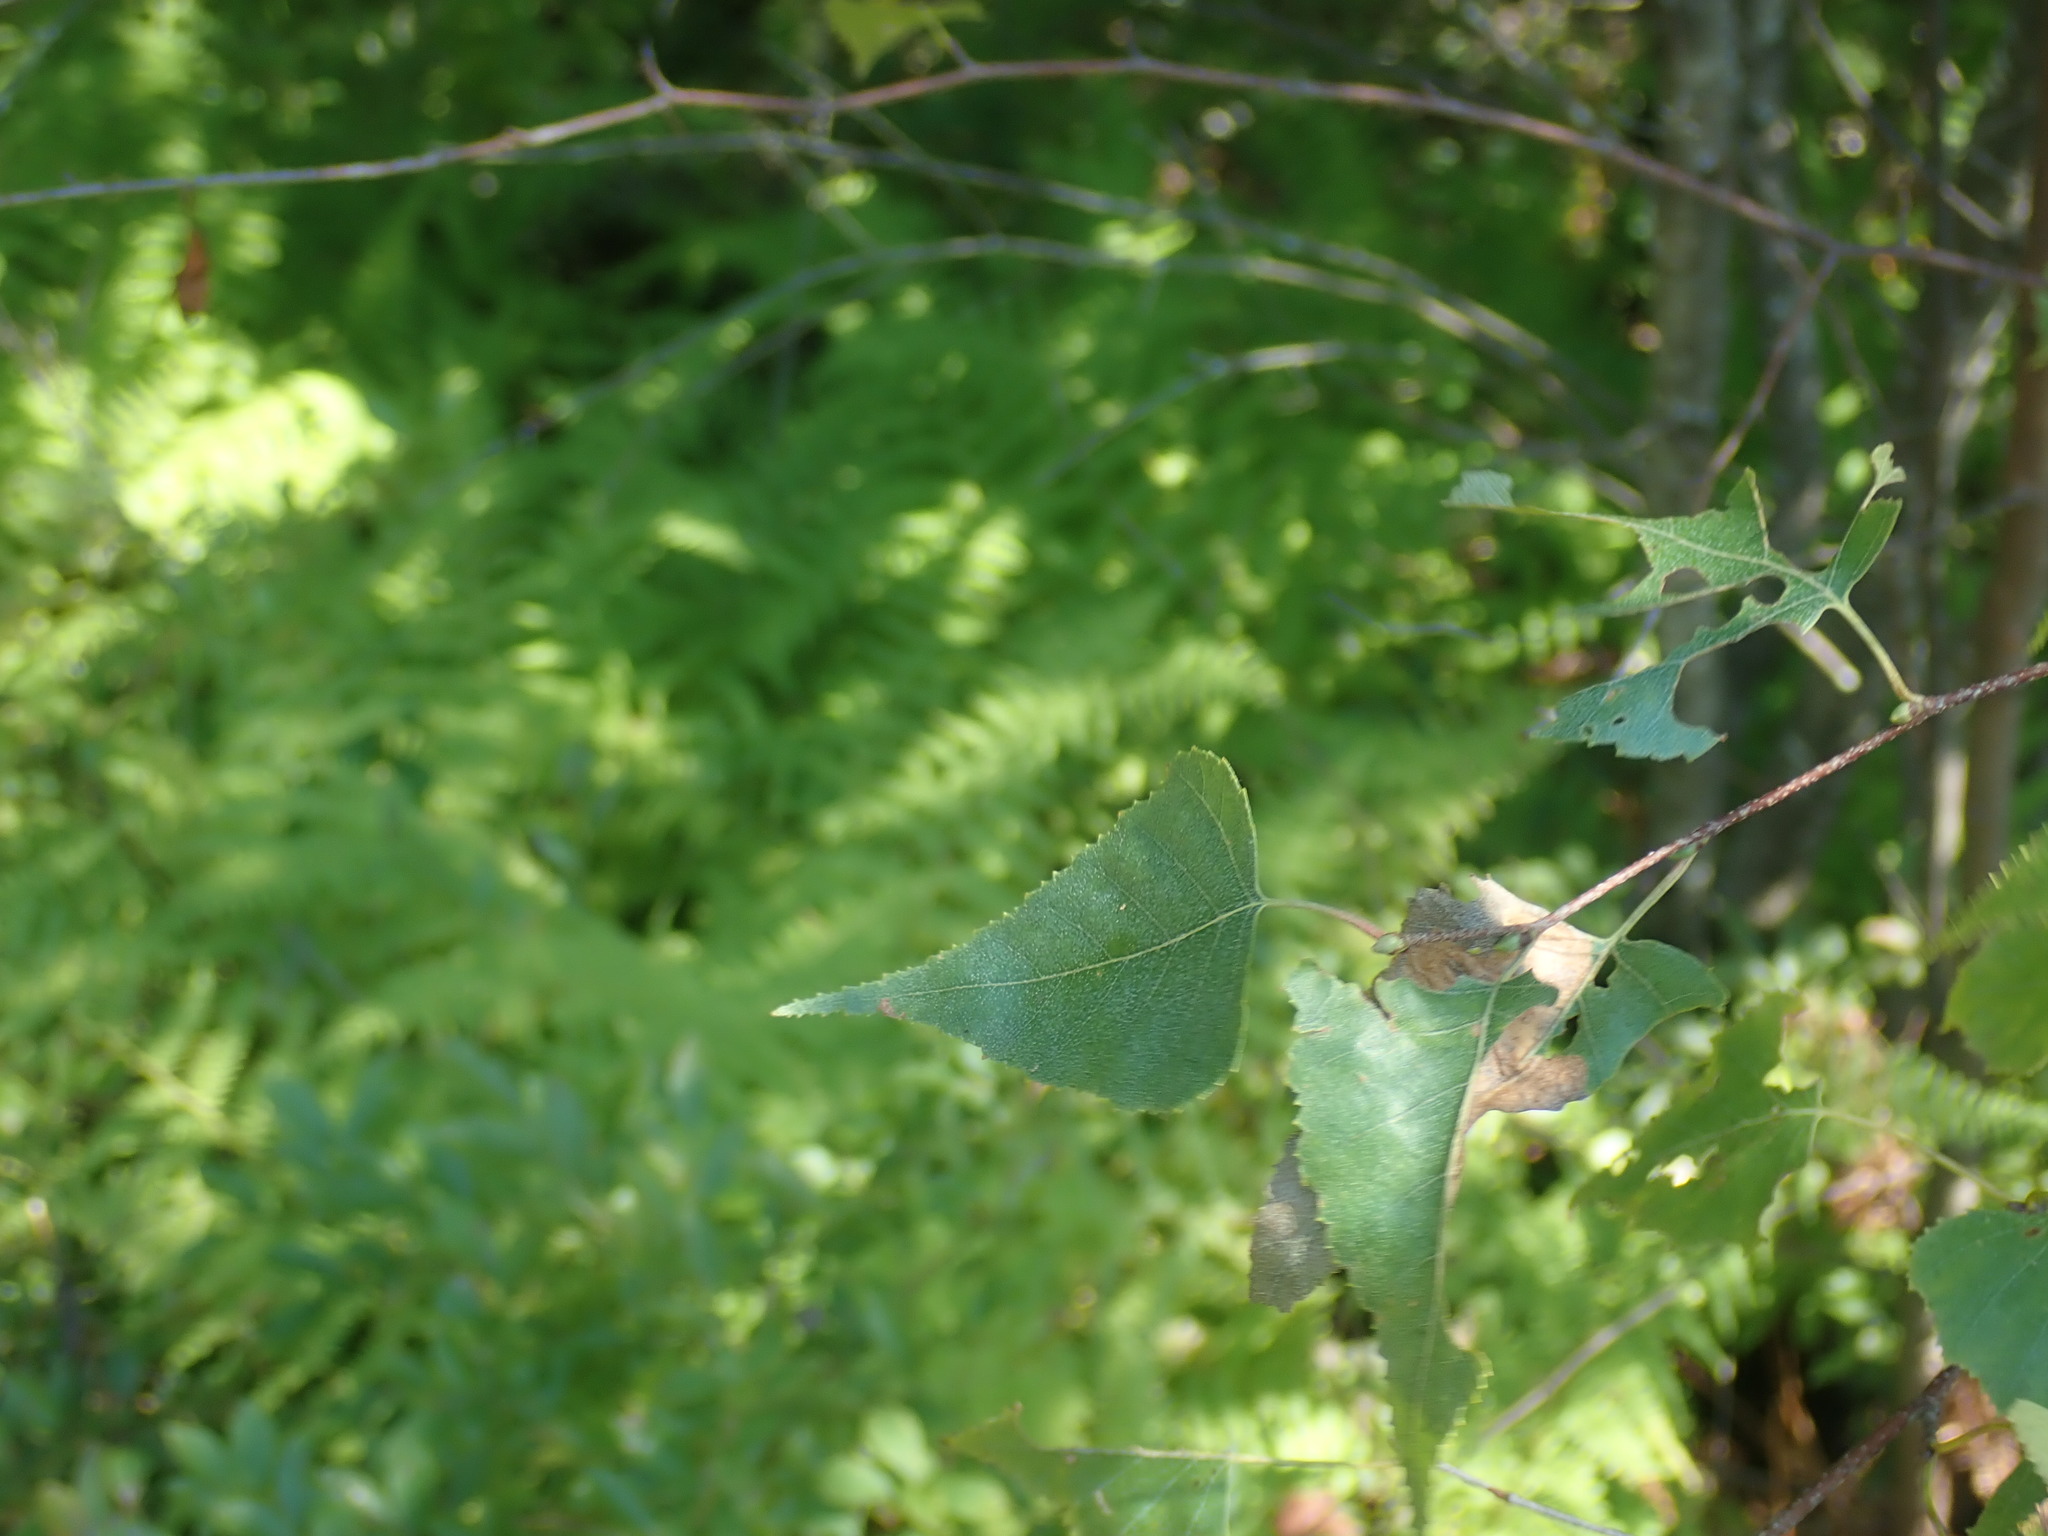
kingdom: Plantae
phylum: Tracheophyta
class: Magnoliopsida
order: Fagales
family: Betulaceae
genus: Betula
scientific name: Betula populifolia
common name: Fire birch
